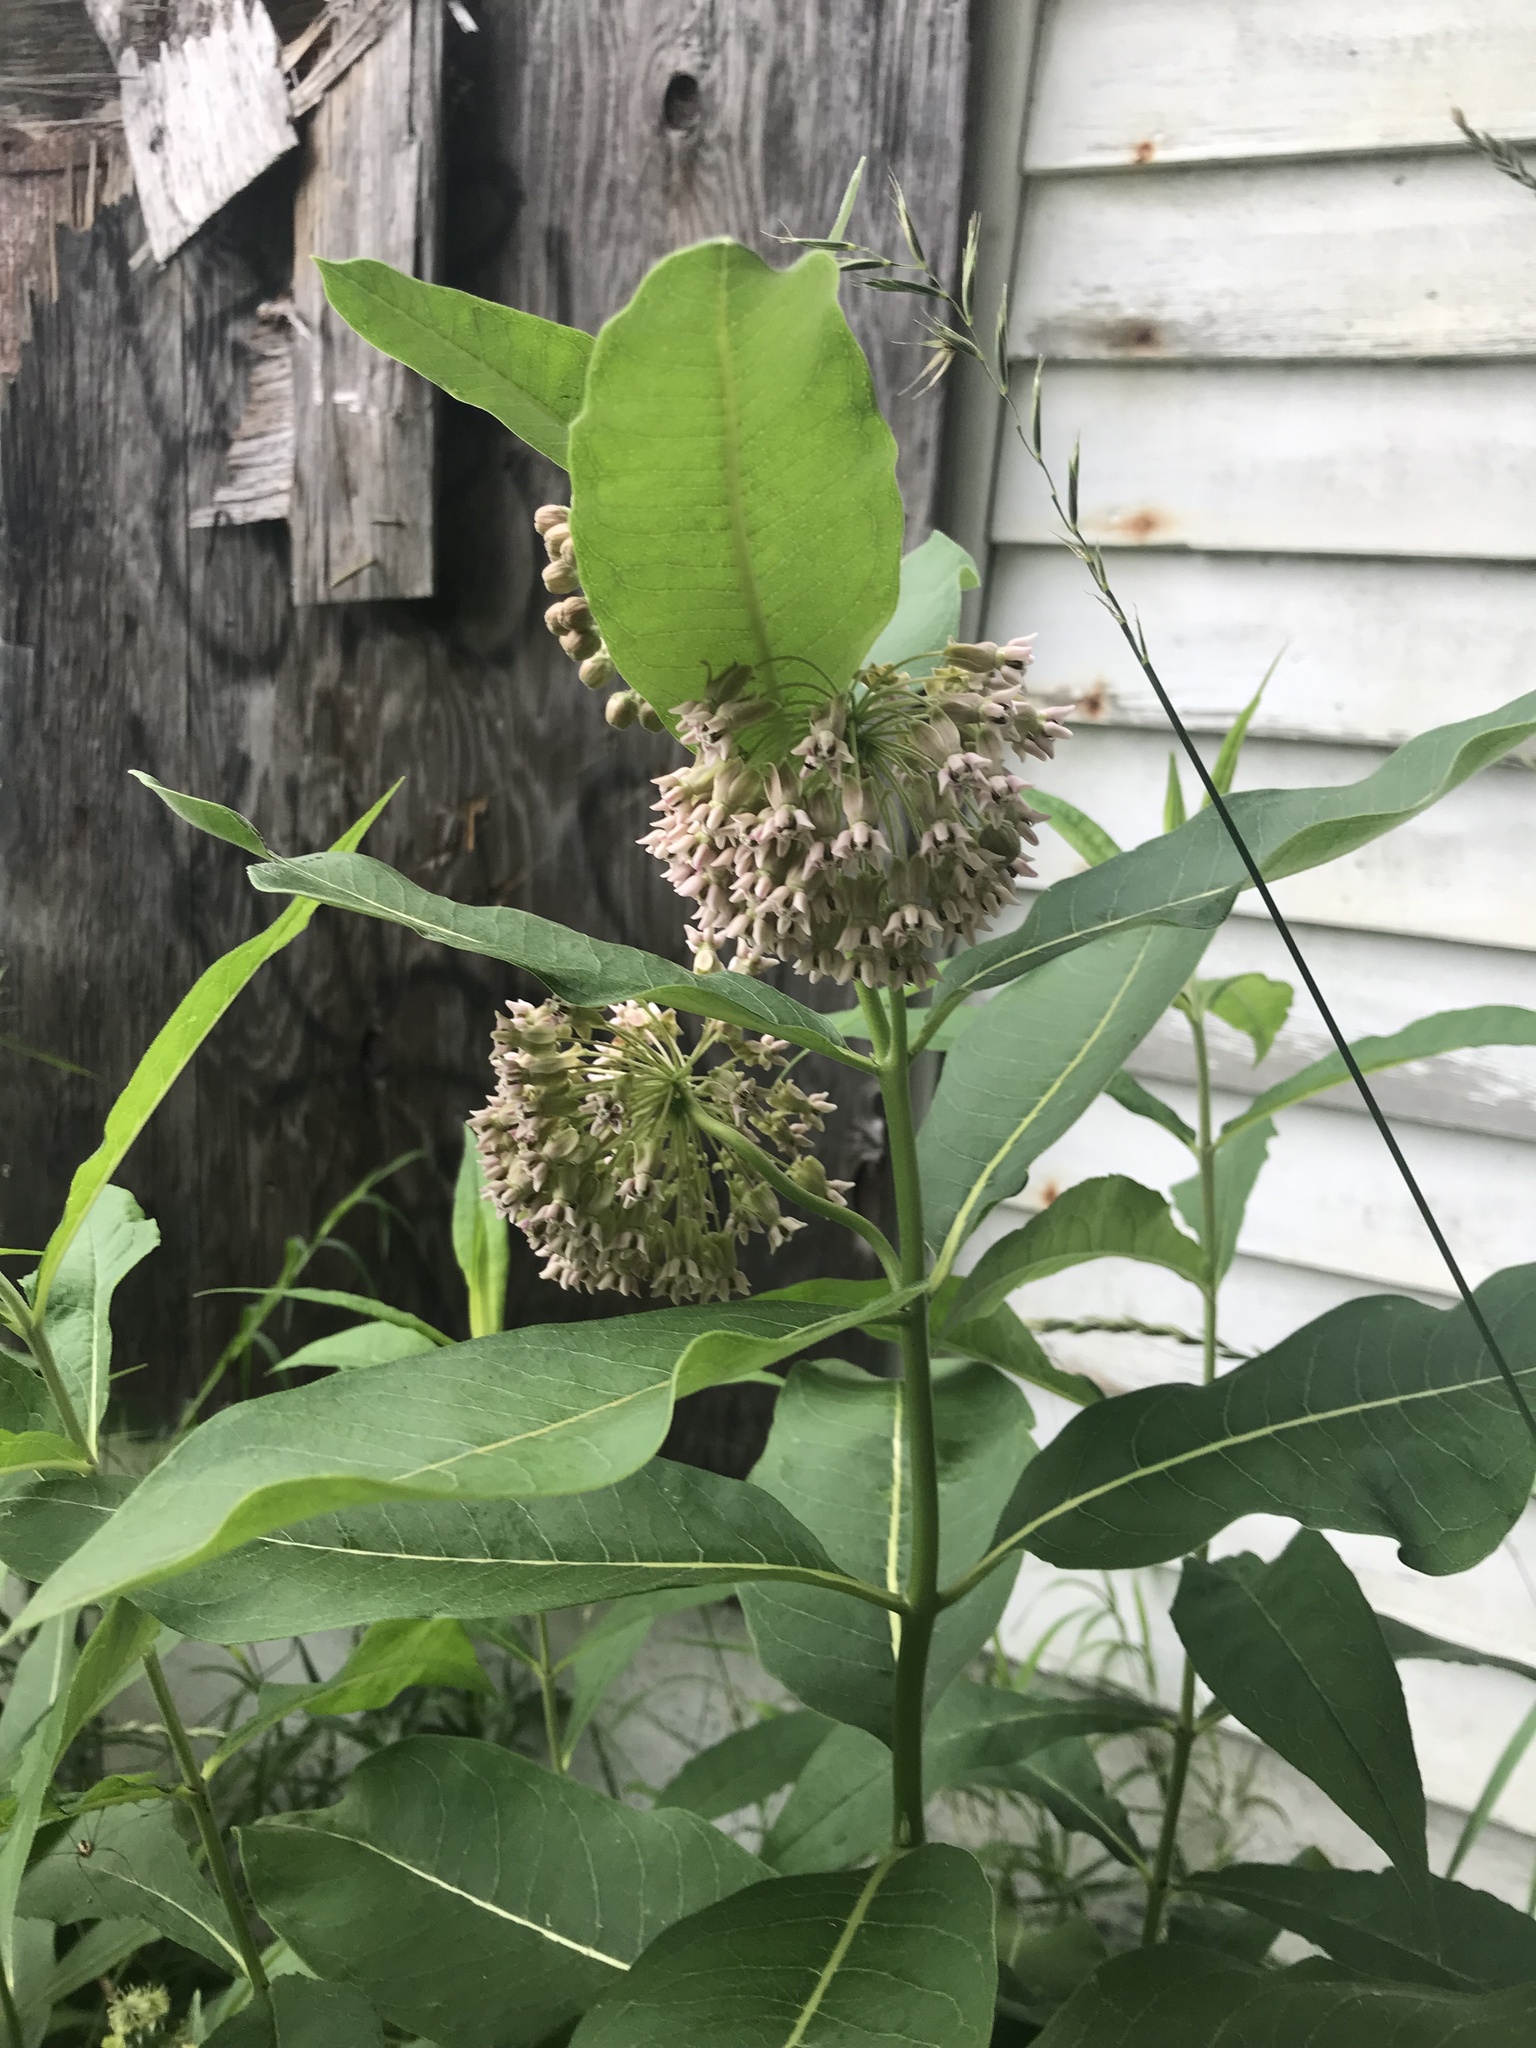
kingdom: Plantae
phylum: Tracheophyta
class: Magnoliopsida
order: Gentianales
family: Apocynaceae
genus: Asclepias
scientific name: Asclepias syriaca
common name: Common milkweed
